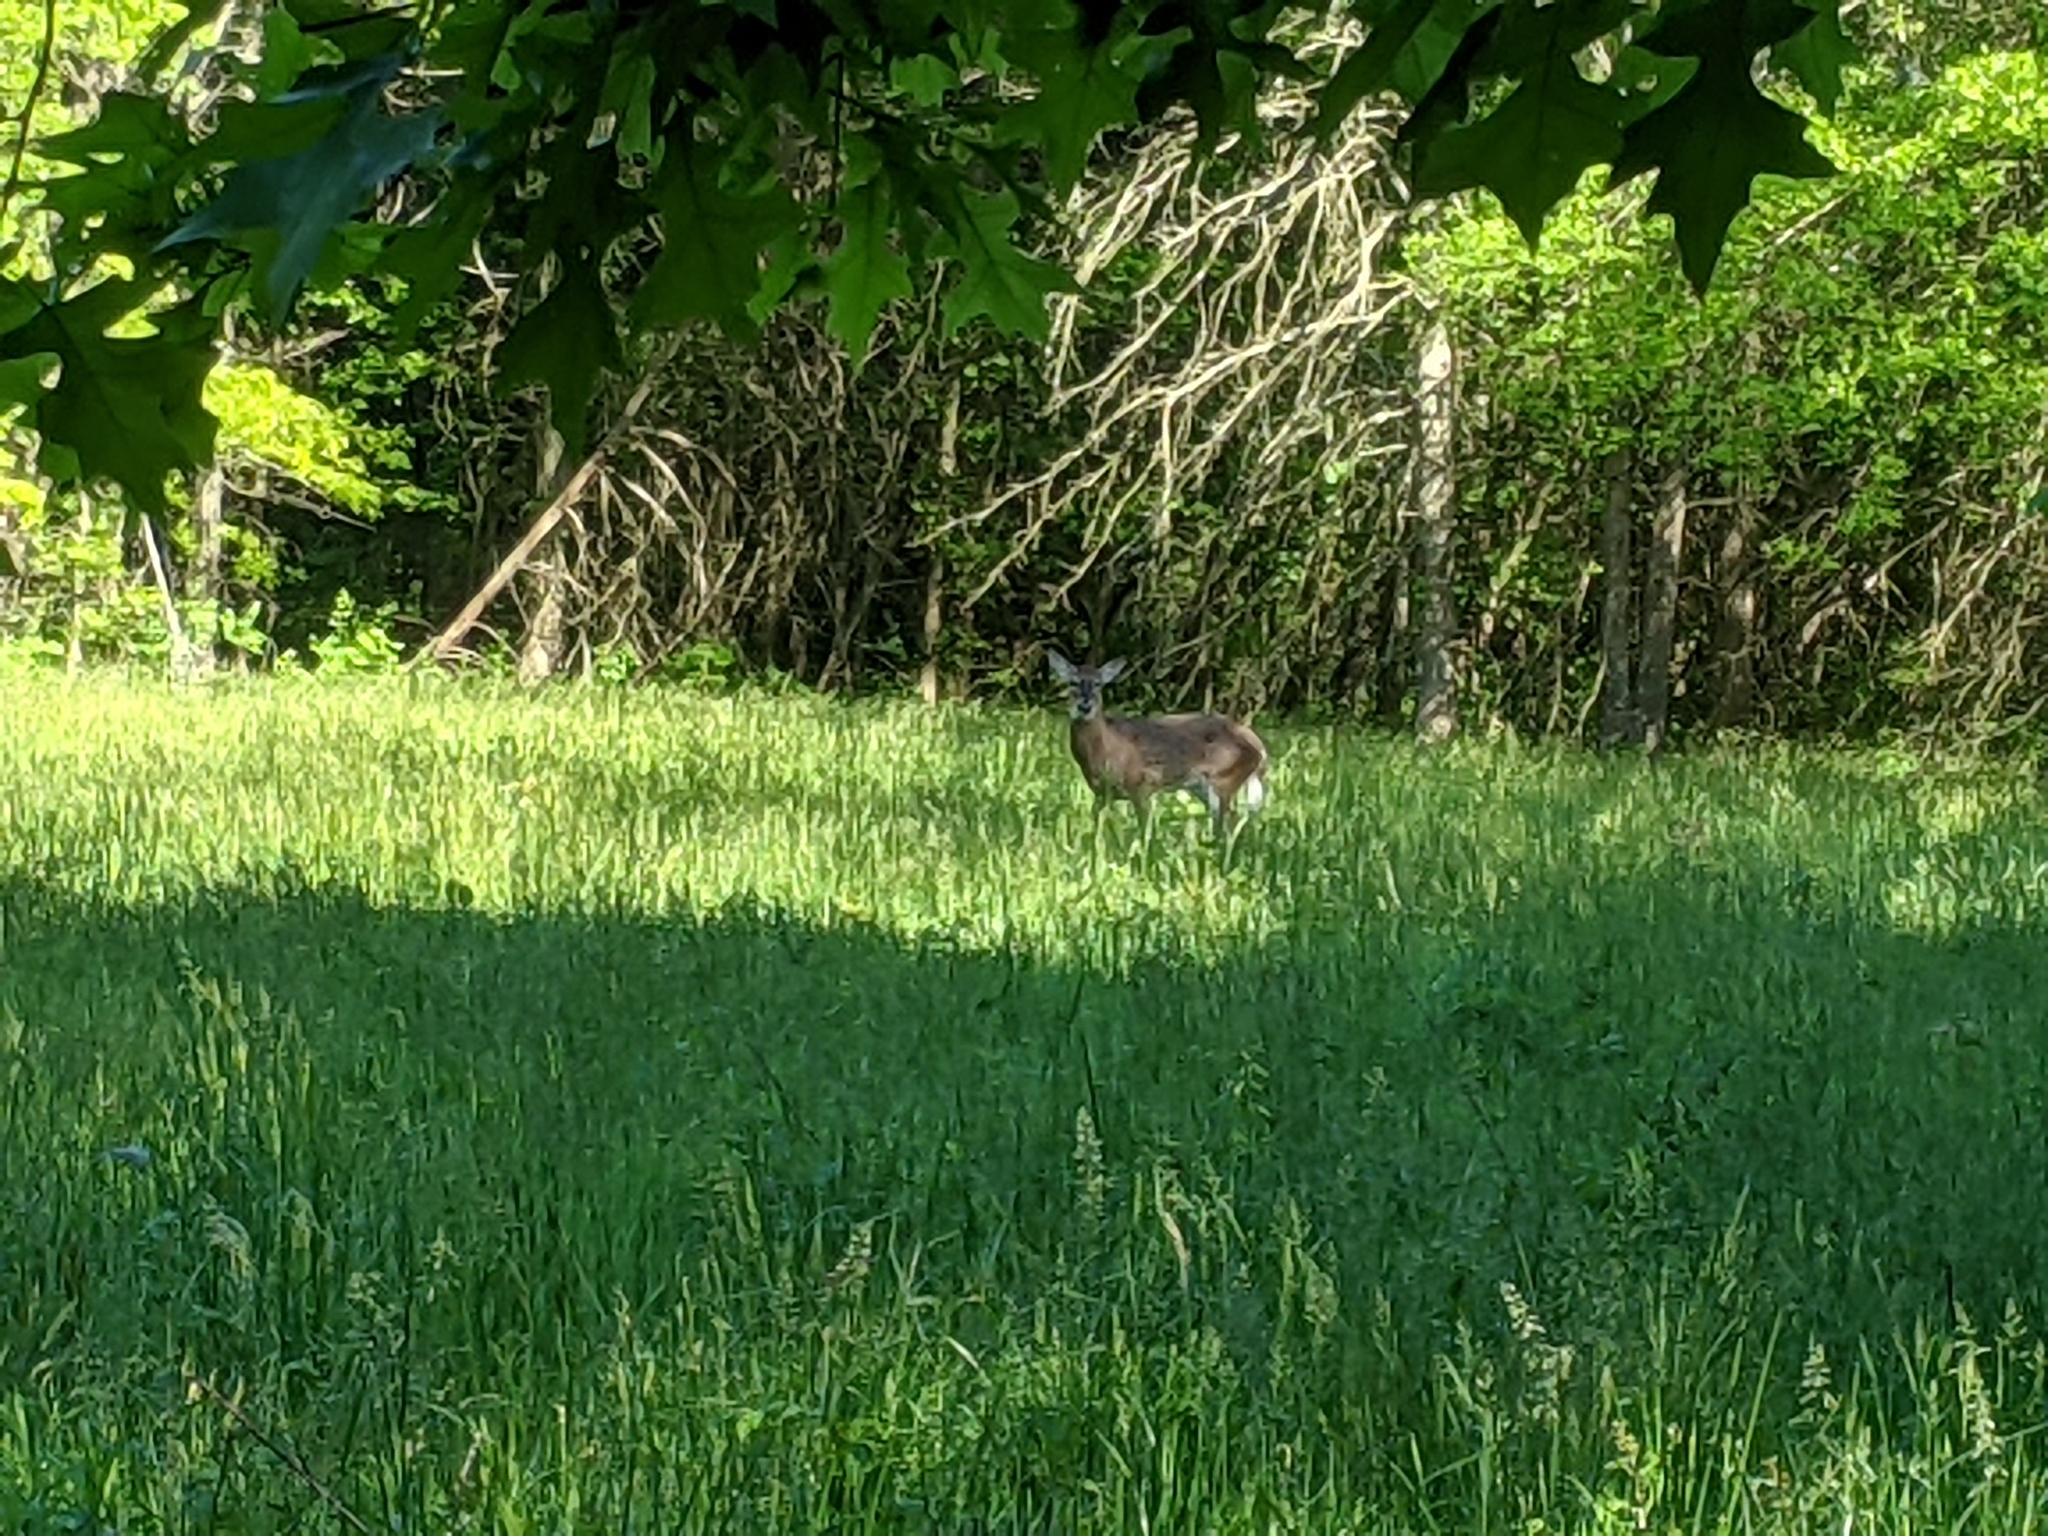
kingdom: Animalia
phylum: Chordata
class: Mammalia
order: Artiodactyla
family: Cervidae
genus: Odocoileus
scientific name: Odocoileus virginianus
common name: White-tailed deer
